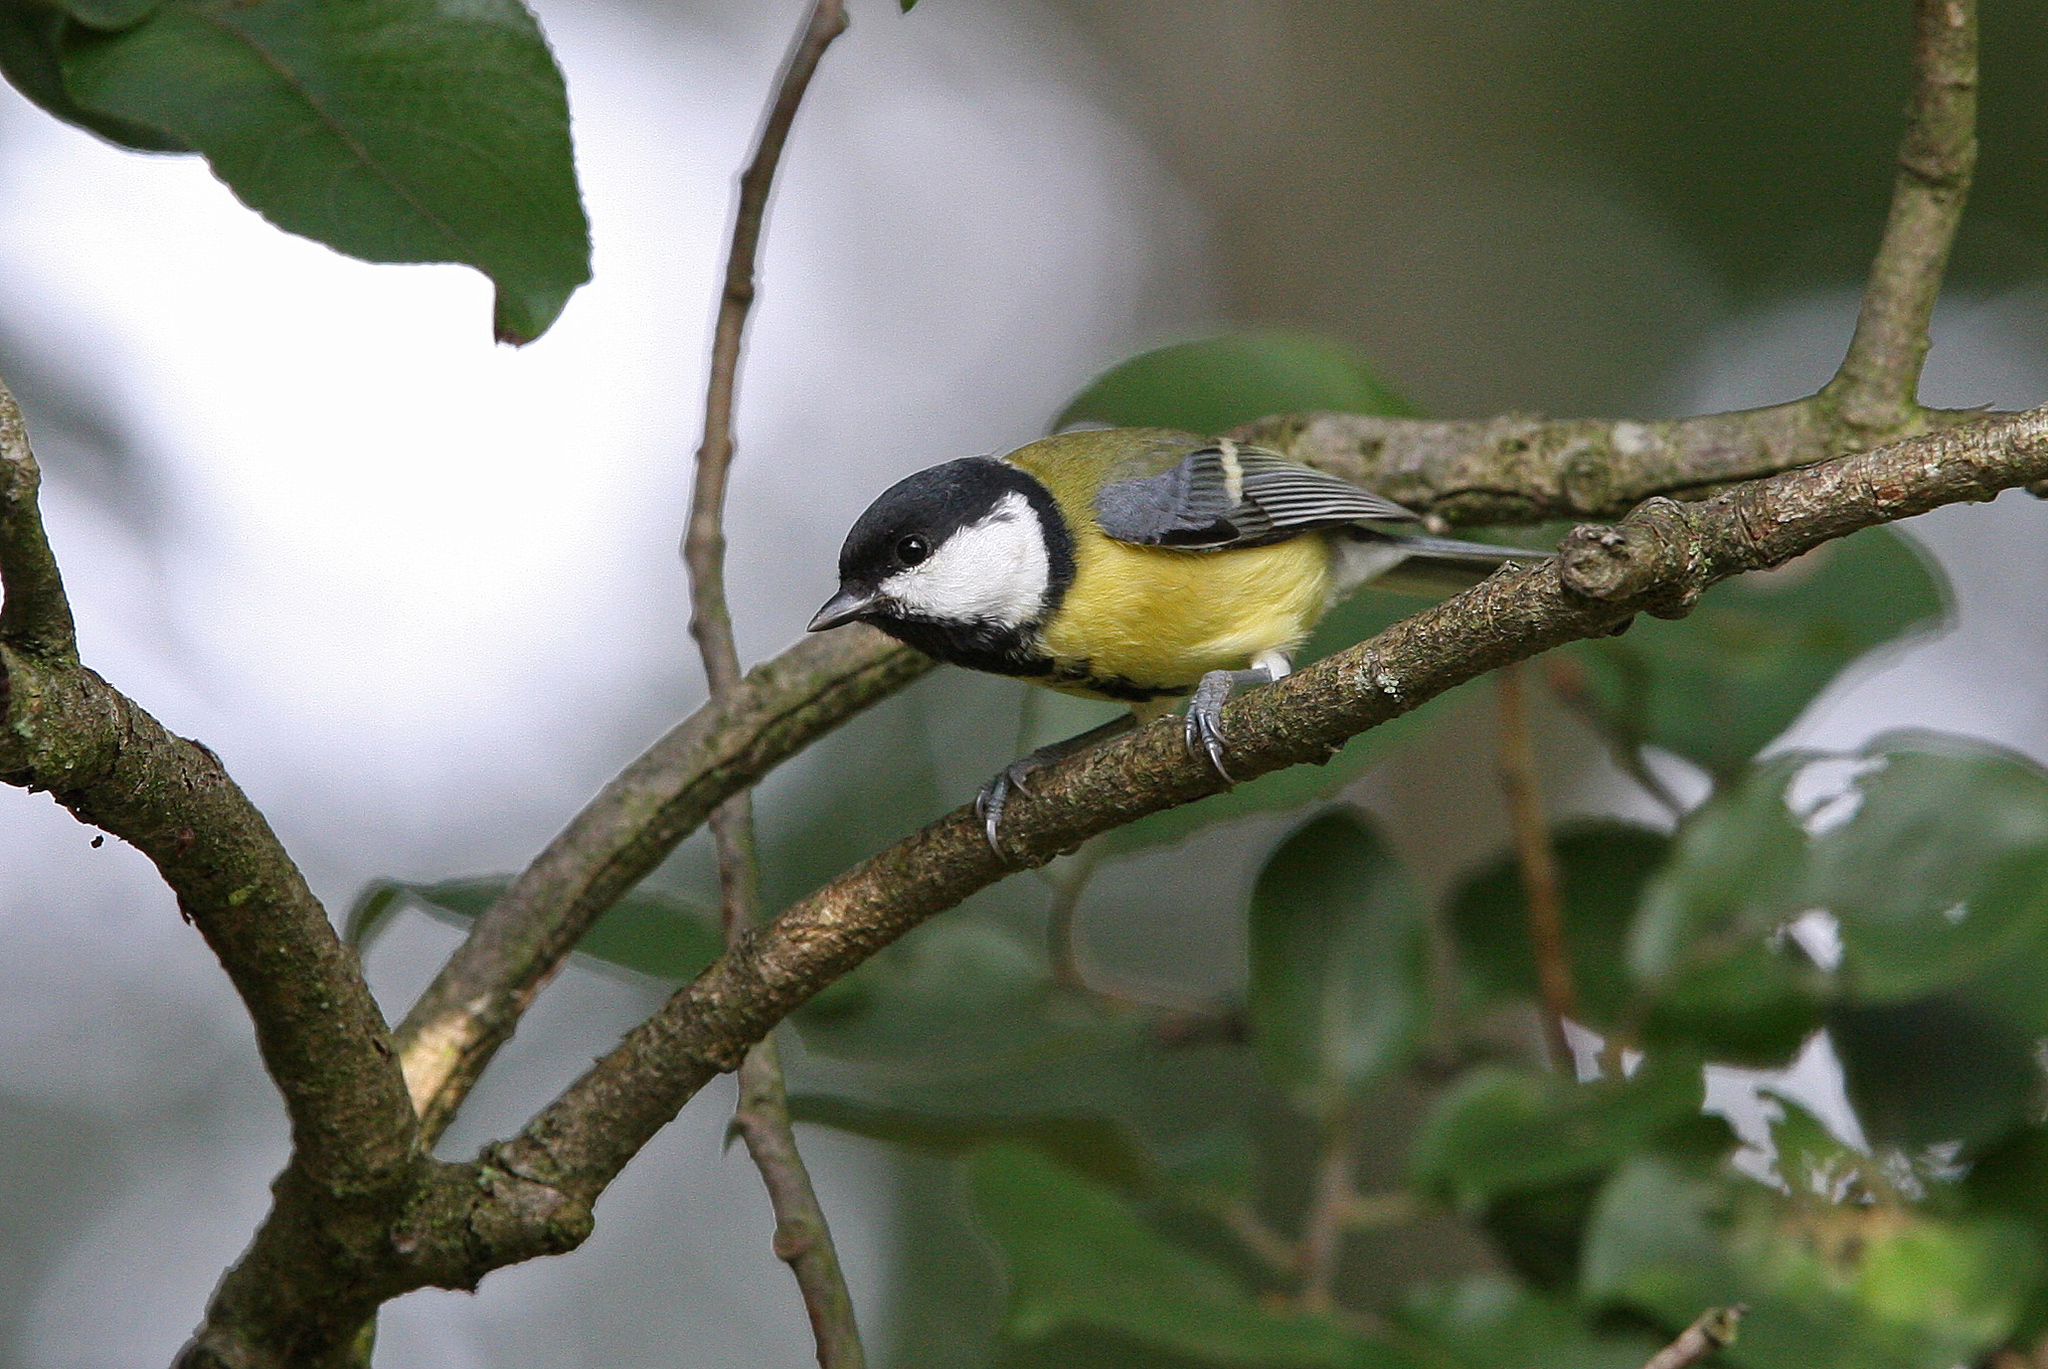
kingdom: Animalia
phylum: Chordata
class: Aves
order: Passeriformes
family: Paridae
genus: Parus
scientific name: Parus major
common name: Great tit
